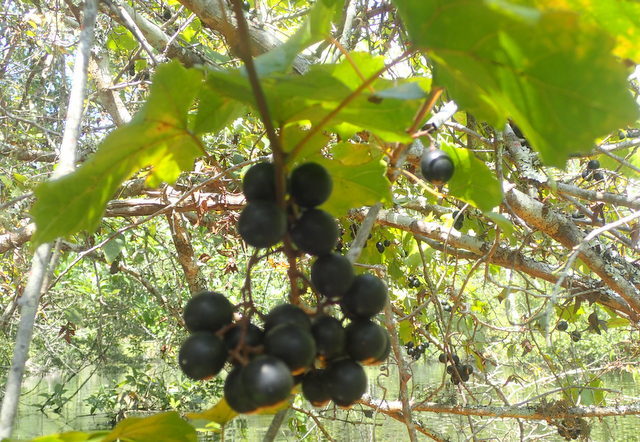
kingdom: Plantae
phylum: Tracheophyta
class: Magnoliopsida
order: Vitales
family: Vitaceae
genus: Vitis
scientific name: Vitis rotundifolia
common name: Muscadine grape
